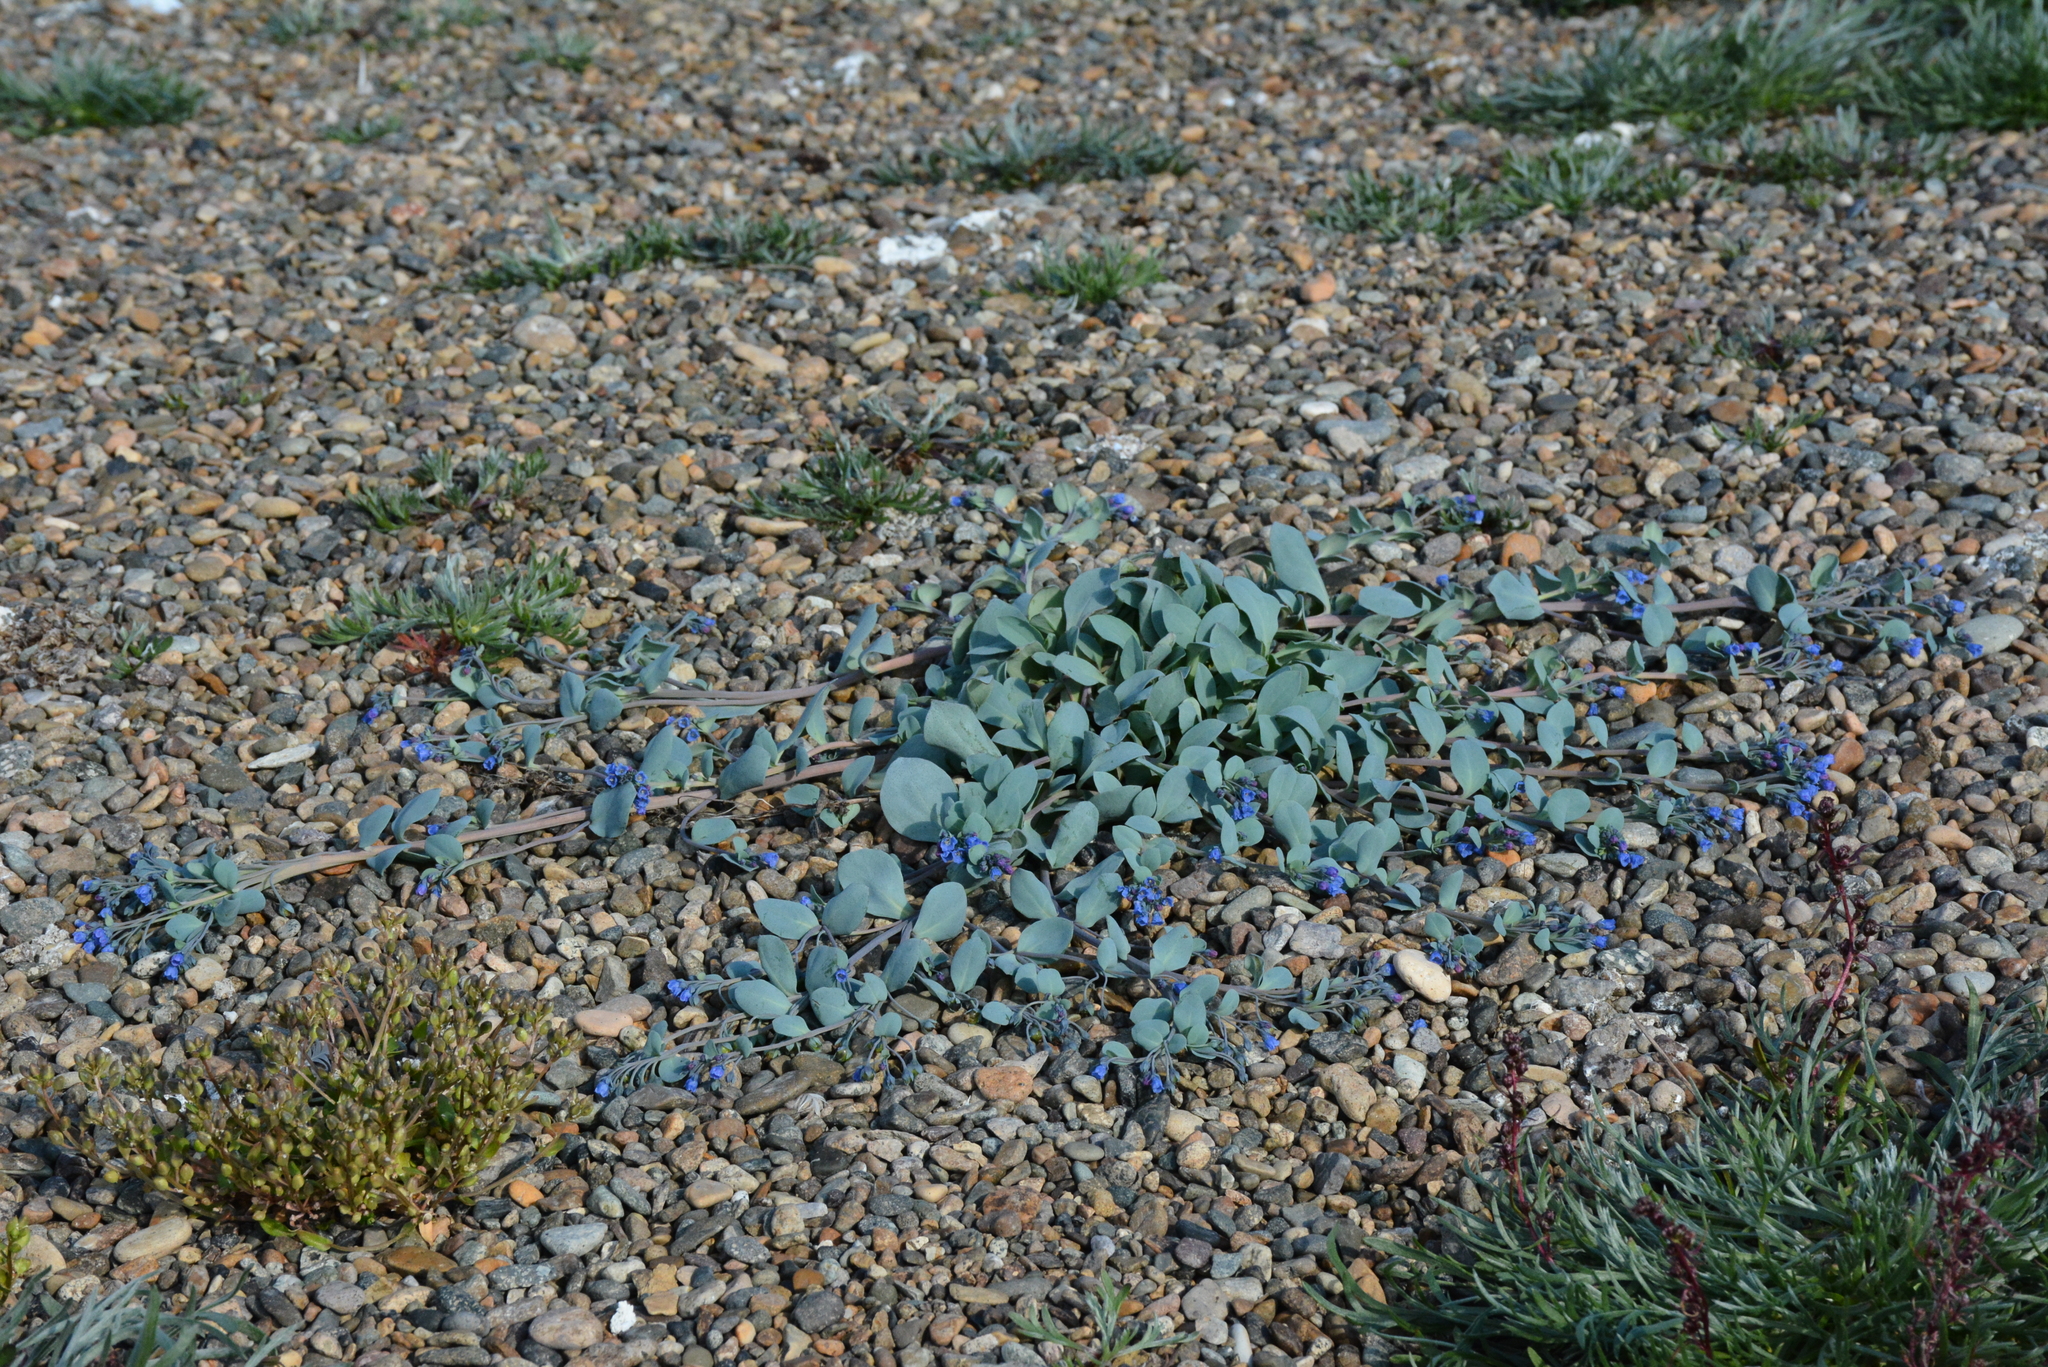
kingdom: Plantae
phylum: Tracheophyta
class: Magnoliopsida
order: Boraginales
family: Boraginaceae
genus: Mertensia
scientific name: Mertensia maritima
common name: Oysterplant
